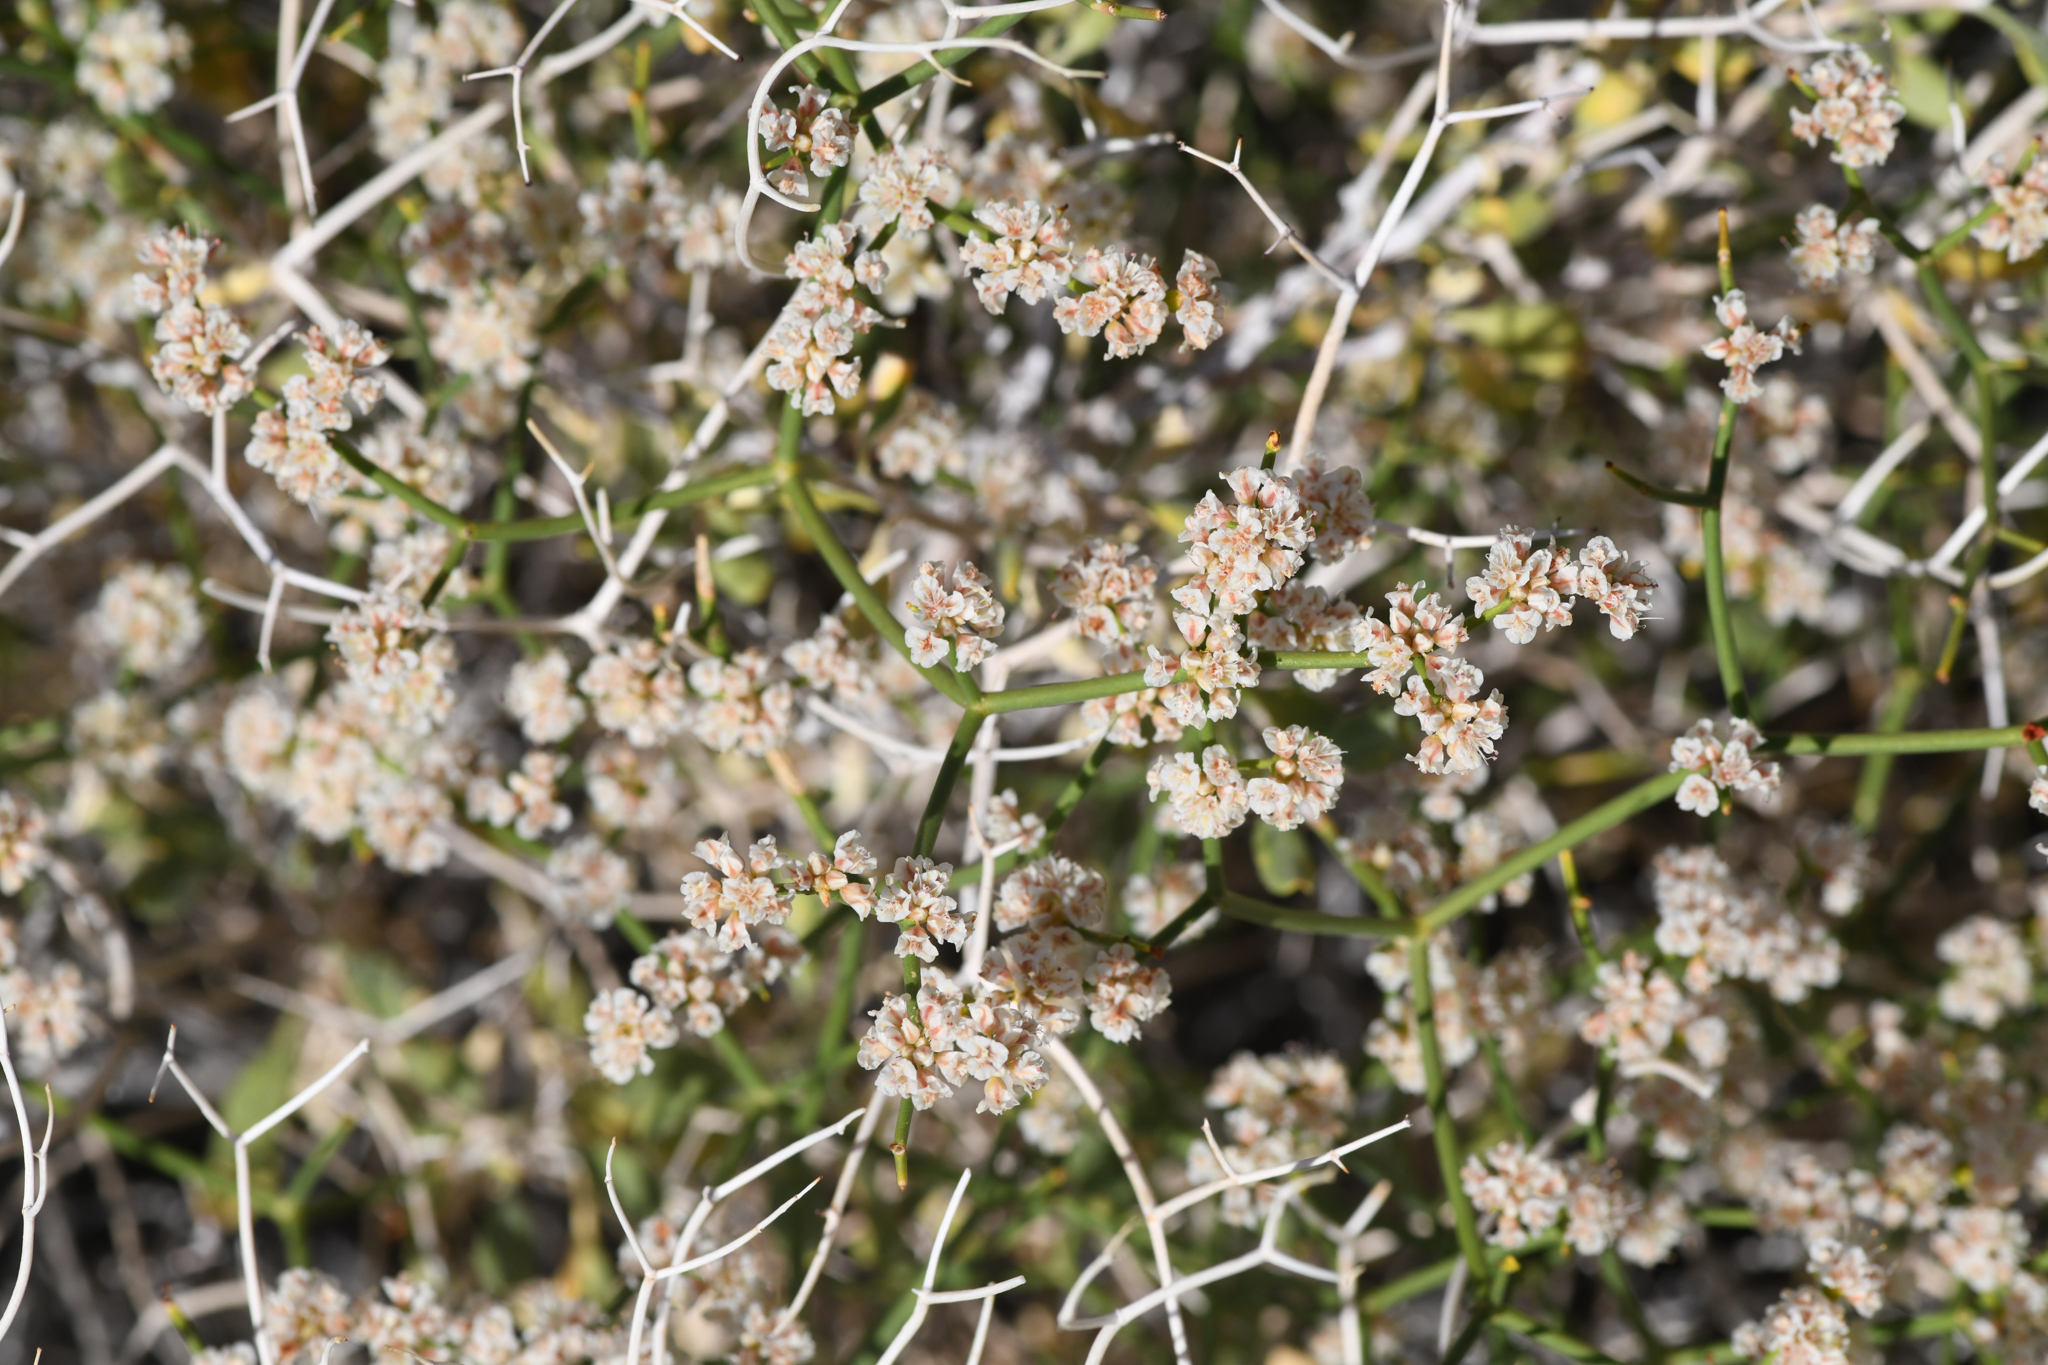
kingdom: Plantae
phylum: Tracheophyta
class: Magnoliopsida
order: Caryophyllales
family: Polygonaceae
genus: Eriogonum
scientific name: Eriogonum heermannii
